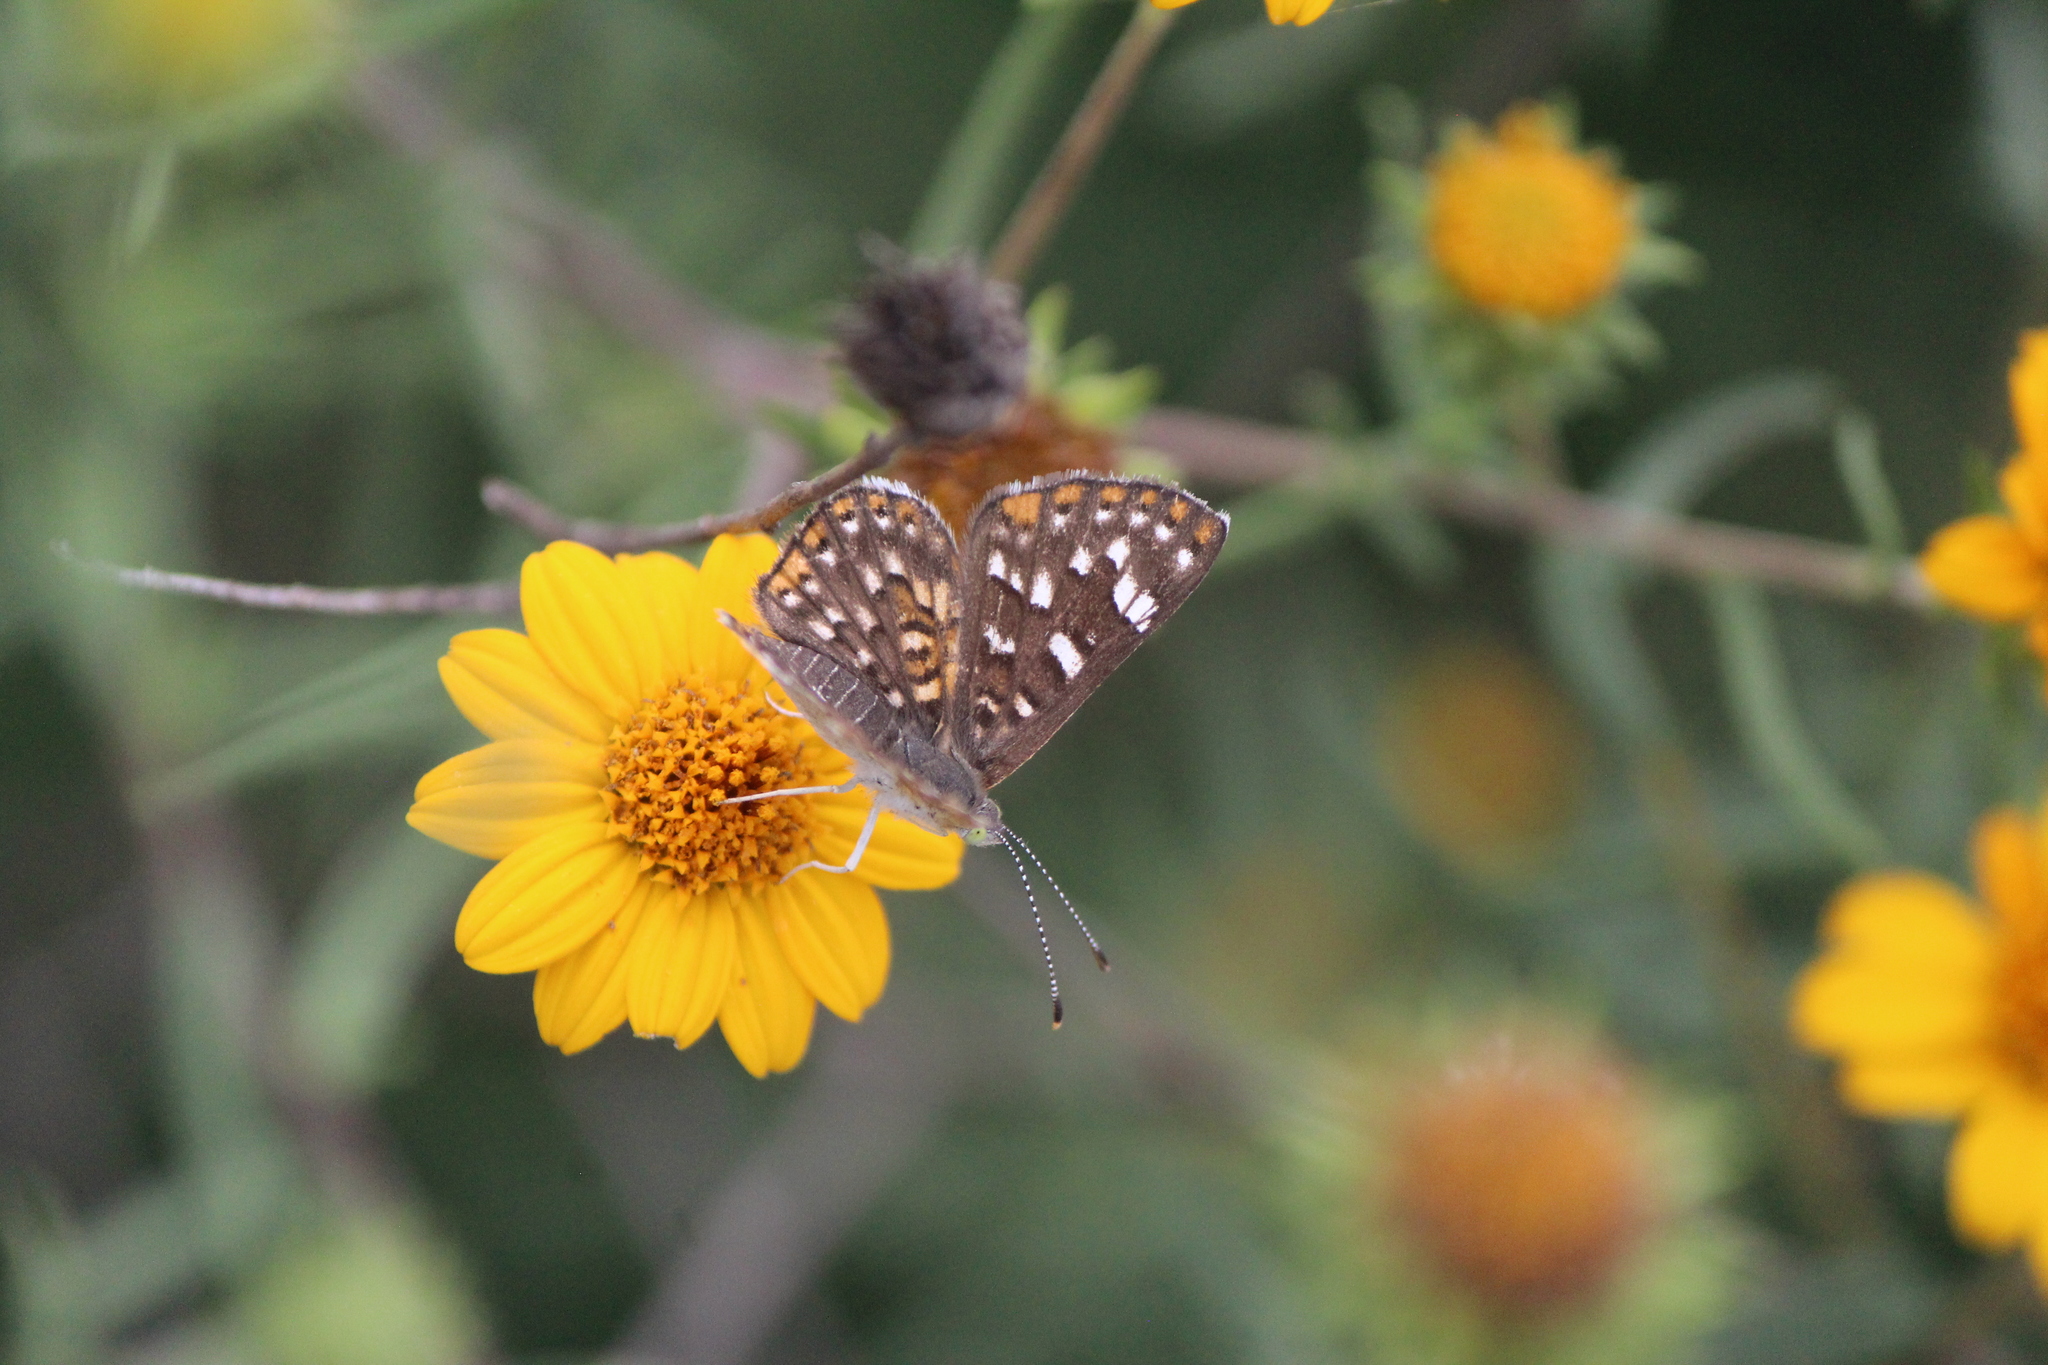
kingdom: Animalia
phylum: Arthropoda
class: Insecta
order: Lepidoptera
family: Riodinidae
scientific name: Riodinidae
